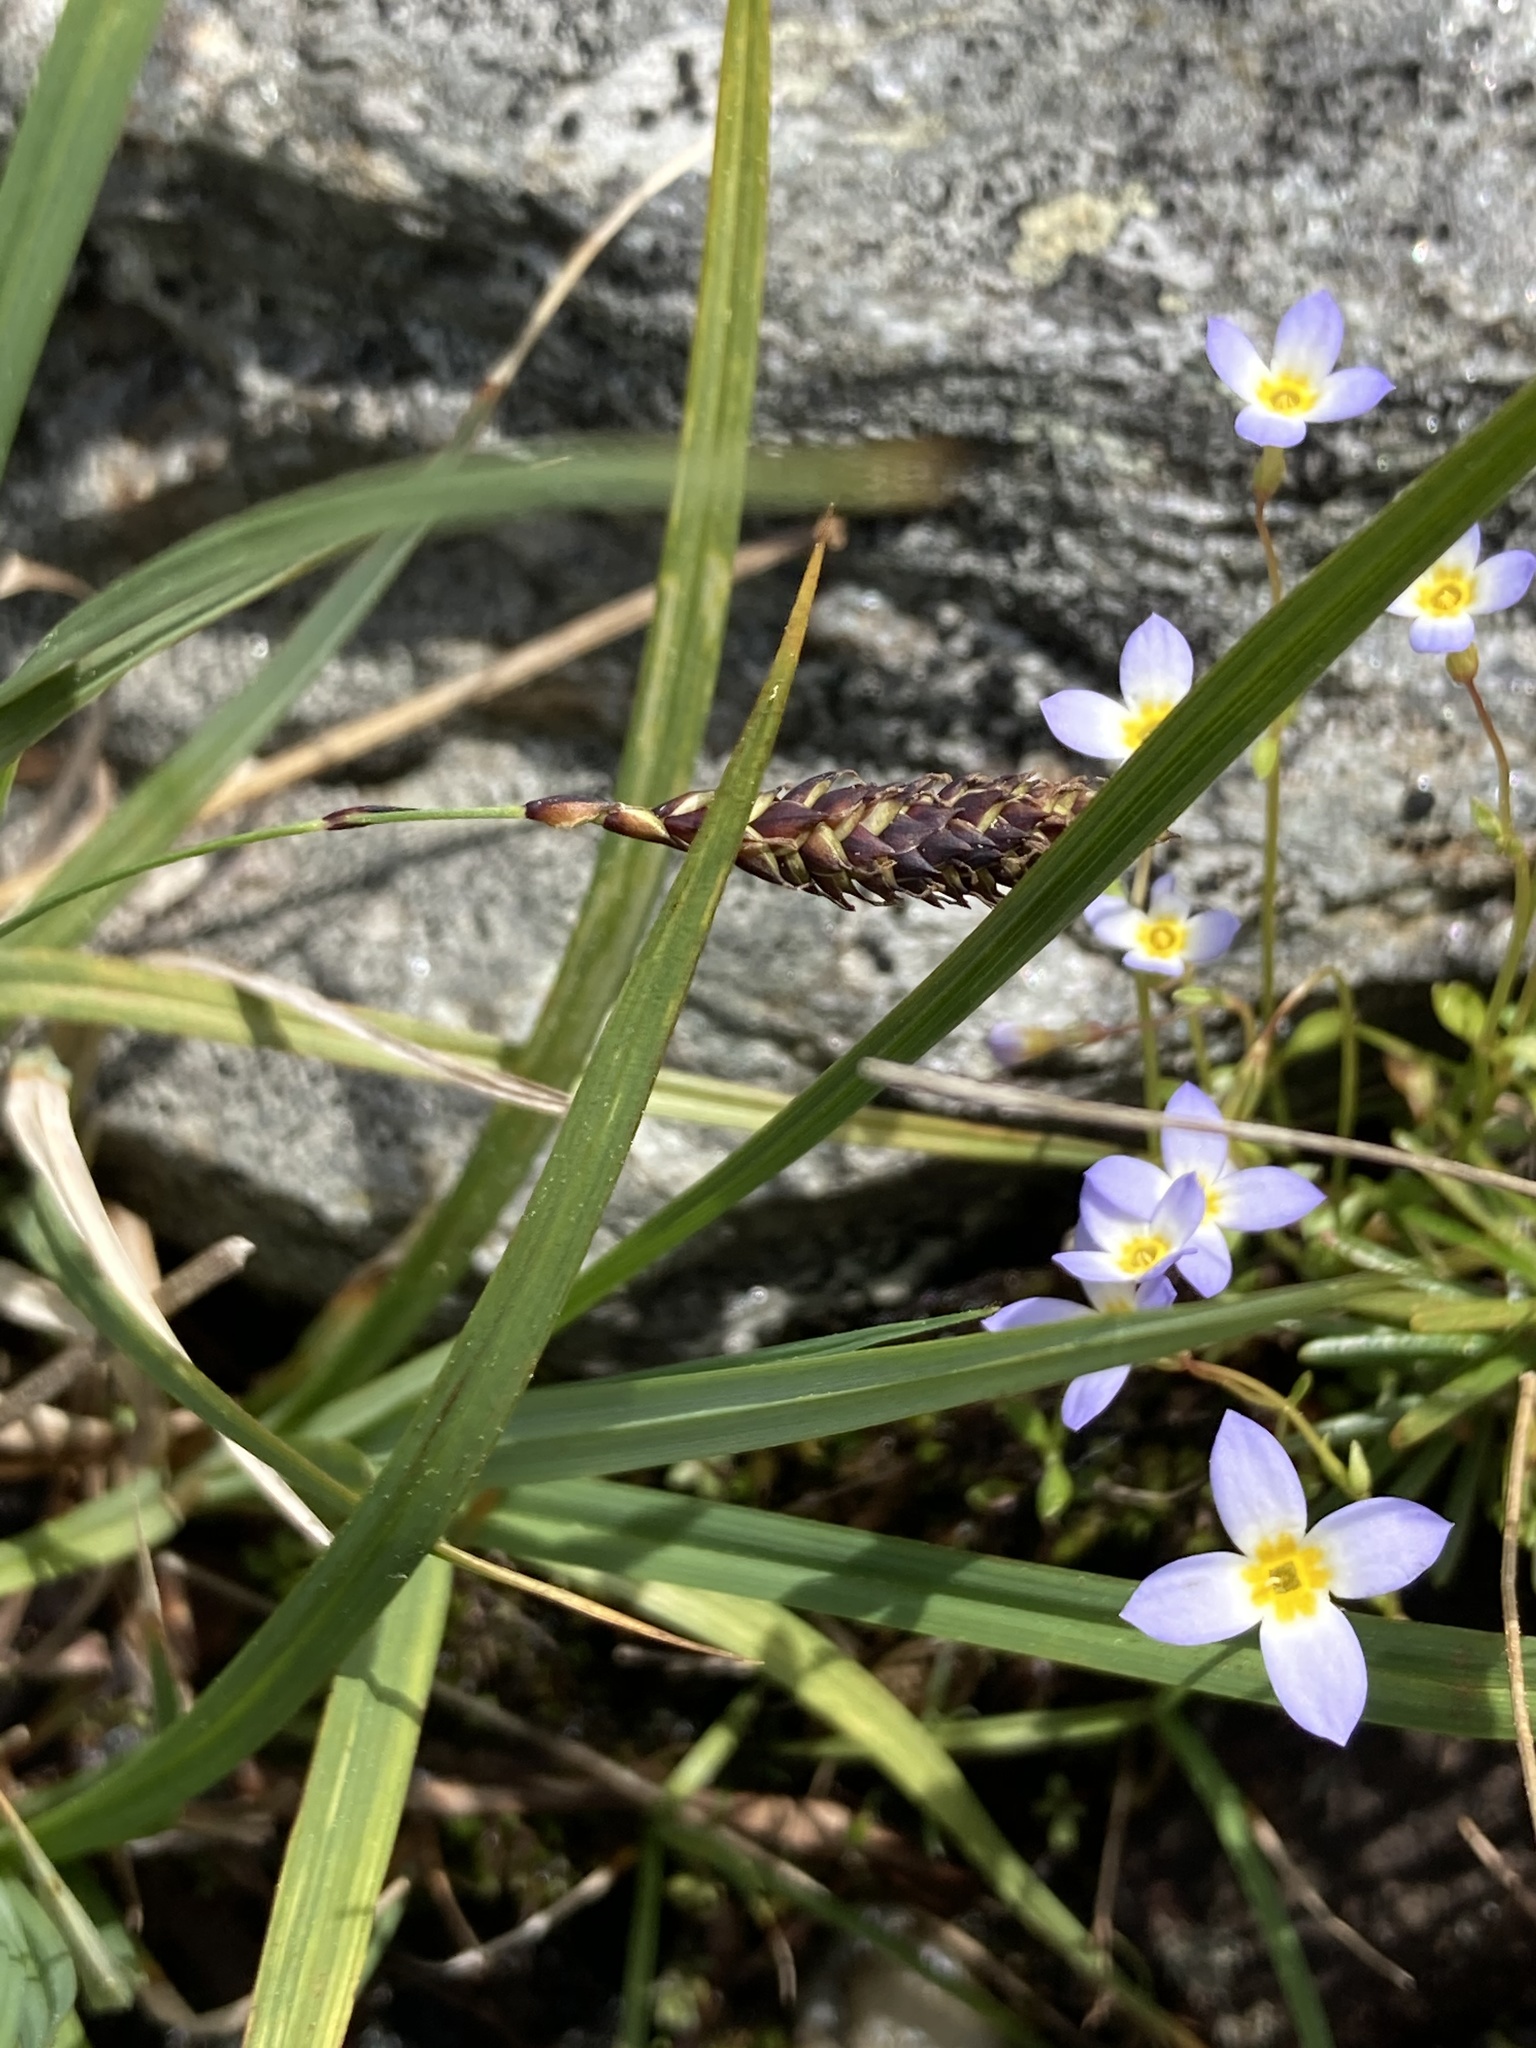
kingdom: Plantae
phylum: Tracheophyta
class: Liliopsida
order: Poales
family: Cyperaceae
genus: Carex
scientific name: Carex atratiformis
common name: Black sedge
